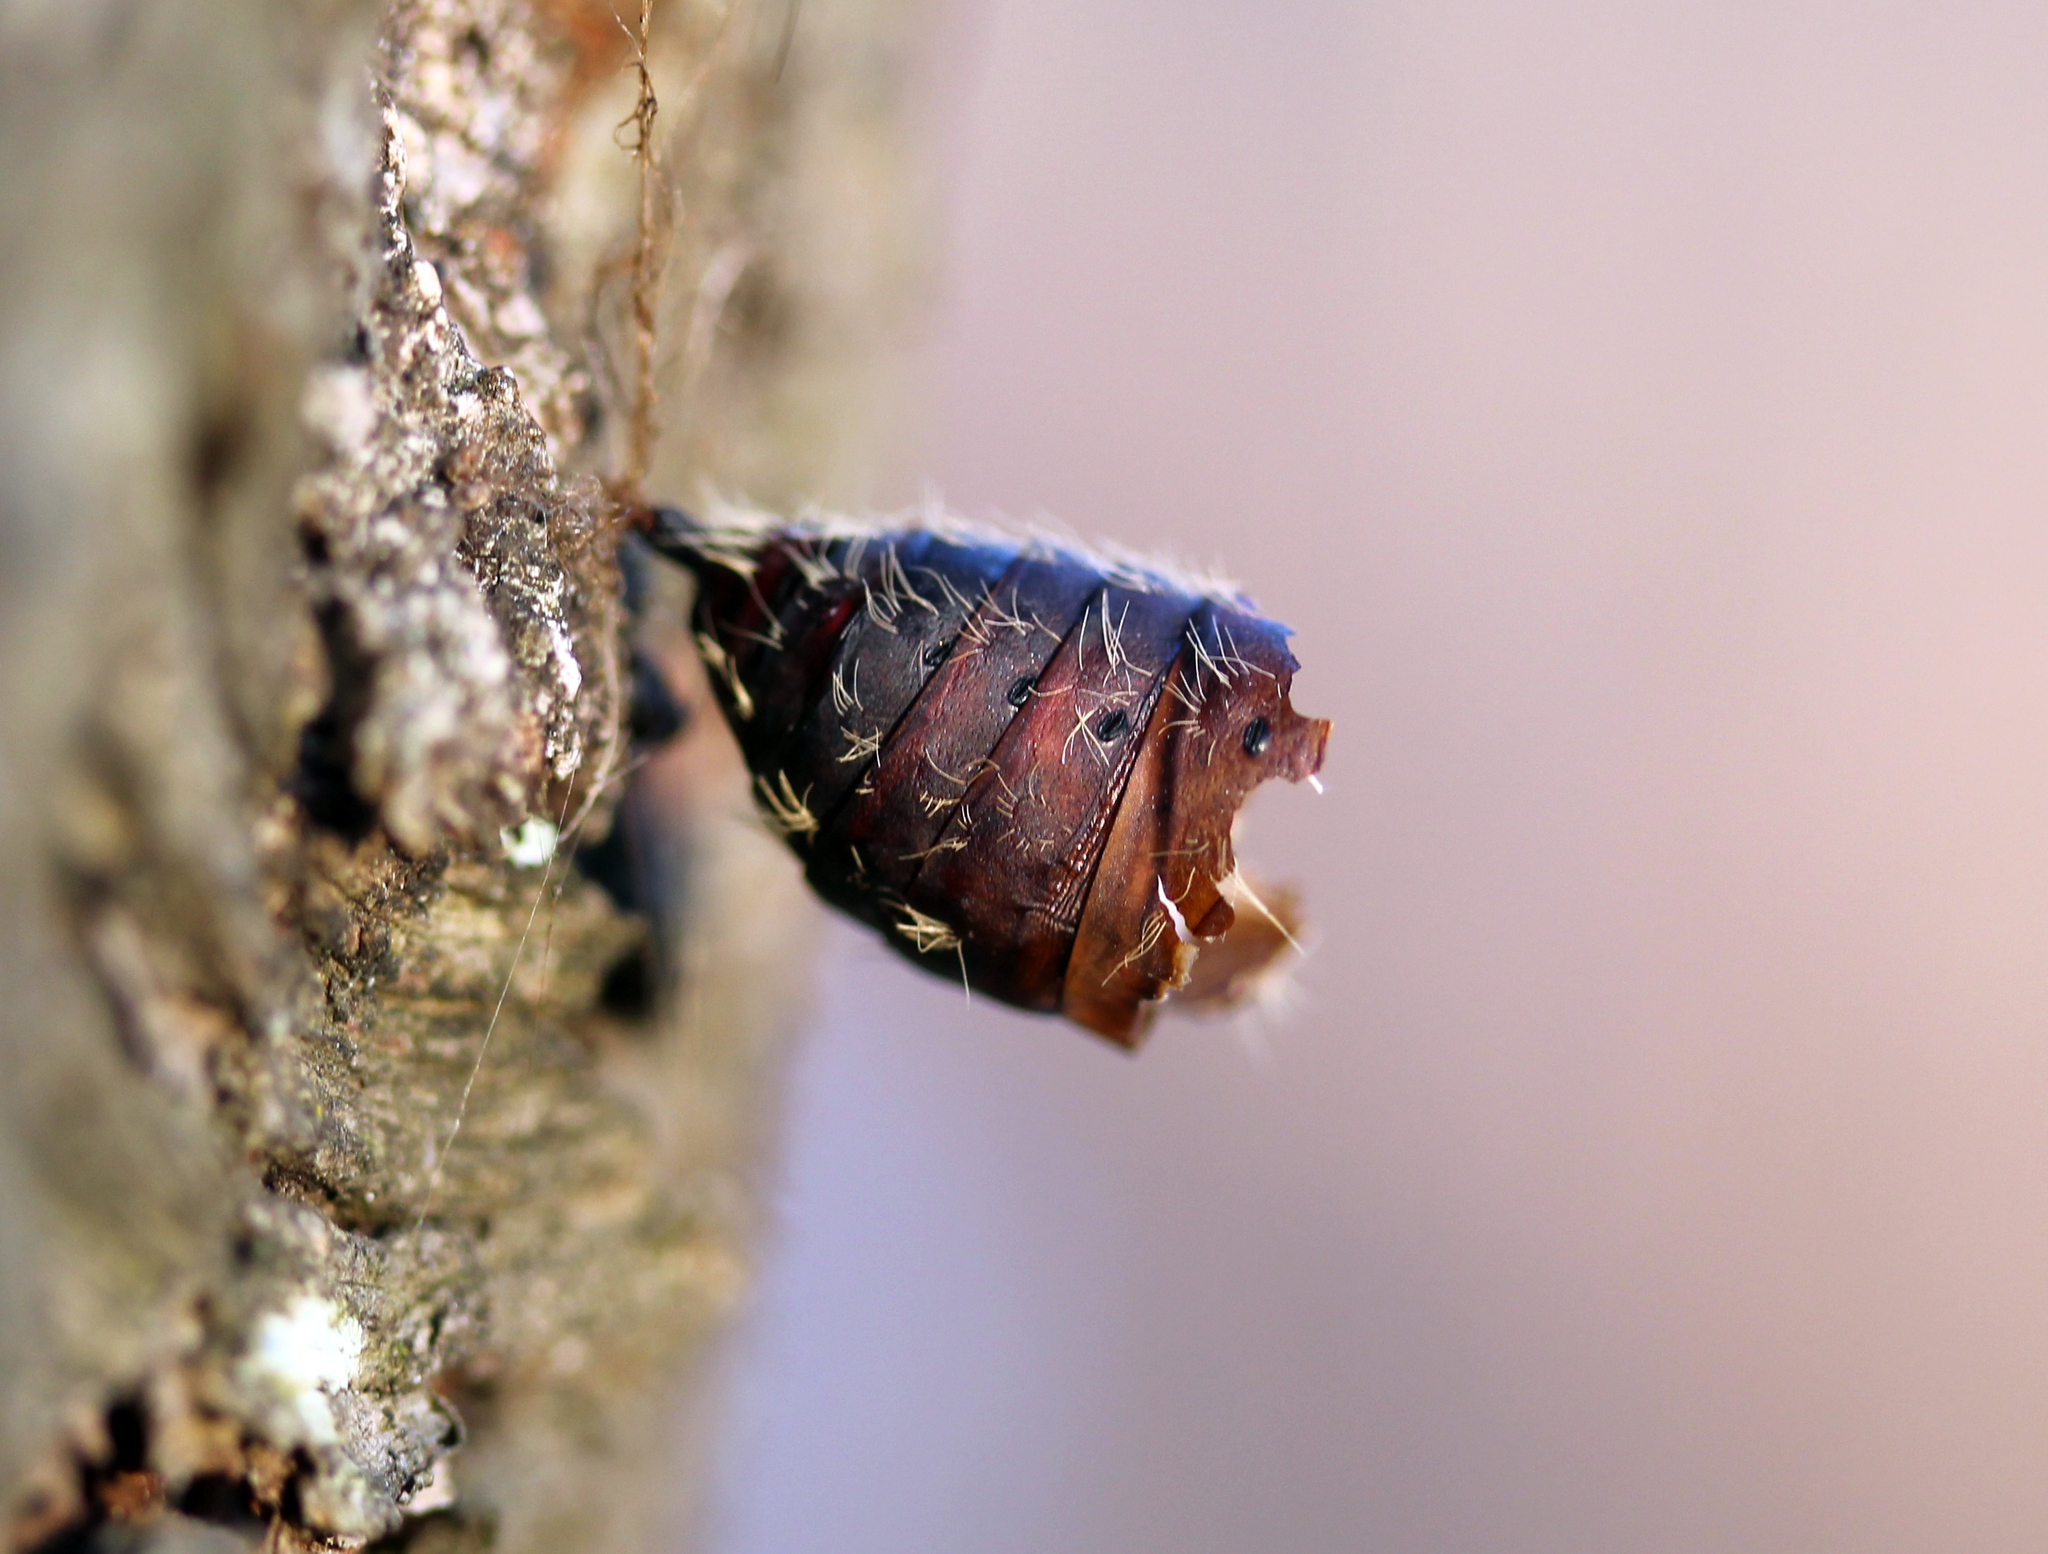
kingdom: Animalia
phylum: Arthropoda
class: Insecta
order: Lepidoptera
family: Erebidae
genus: Lymantria
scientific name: Lymantria dispar
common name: Gypsy moth
